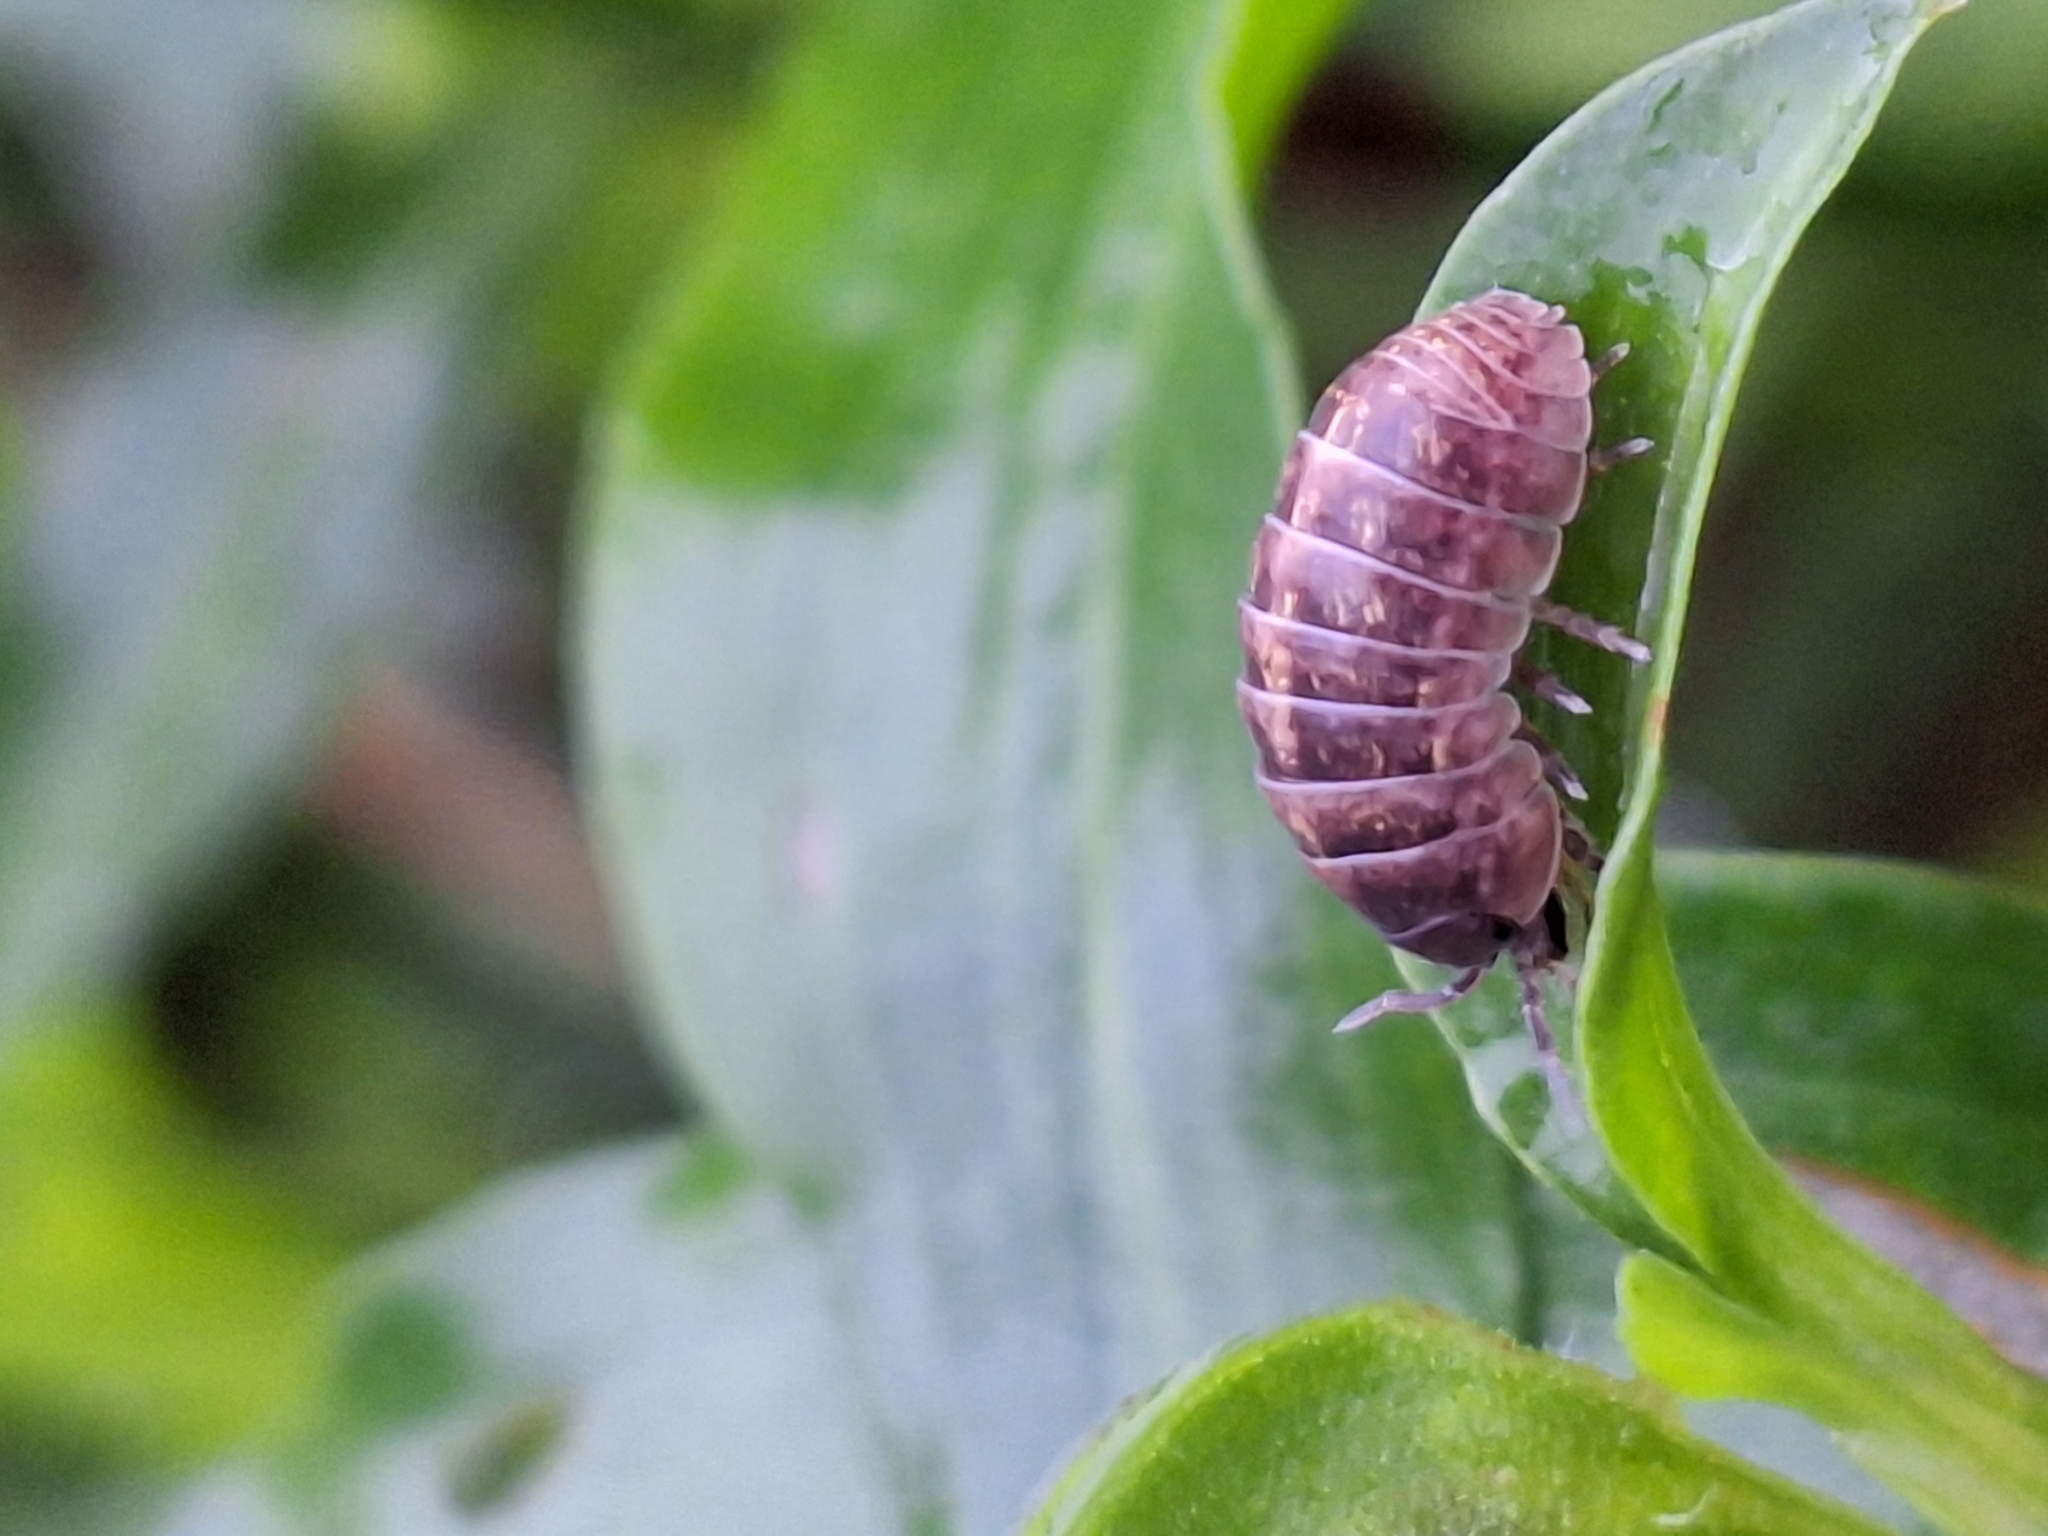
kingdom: Animalia
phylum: Arthropoda
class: Malacostraca
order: Isopoda
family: Armadillidiidae
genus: Armadillidium
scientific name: Armadillidium vulgare
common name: Common pill woodlouse
